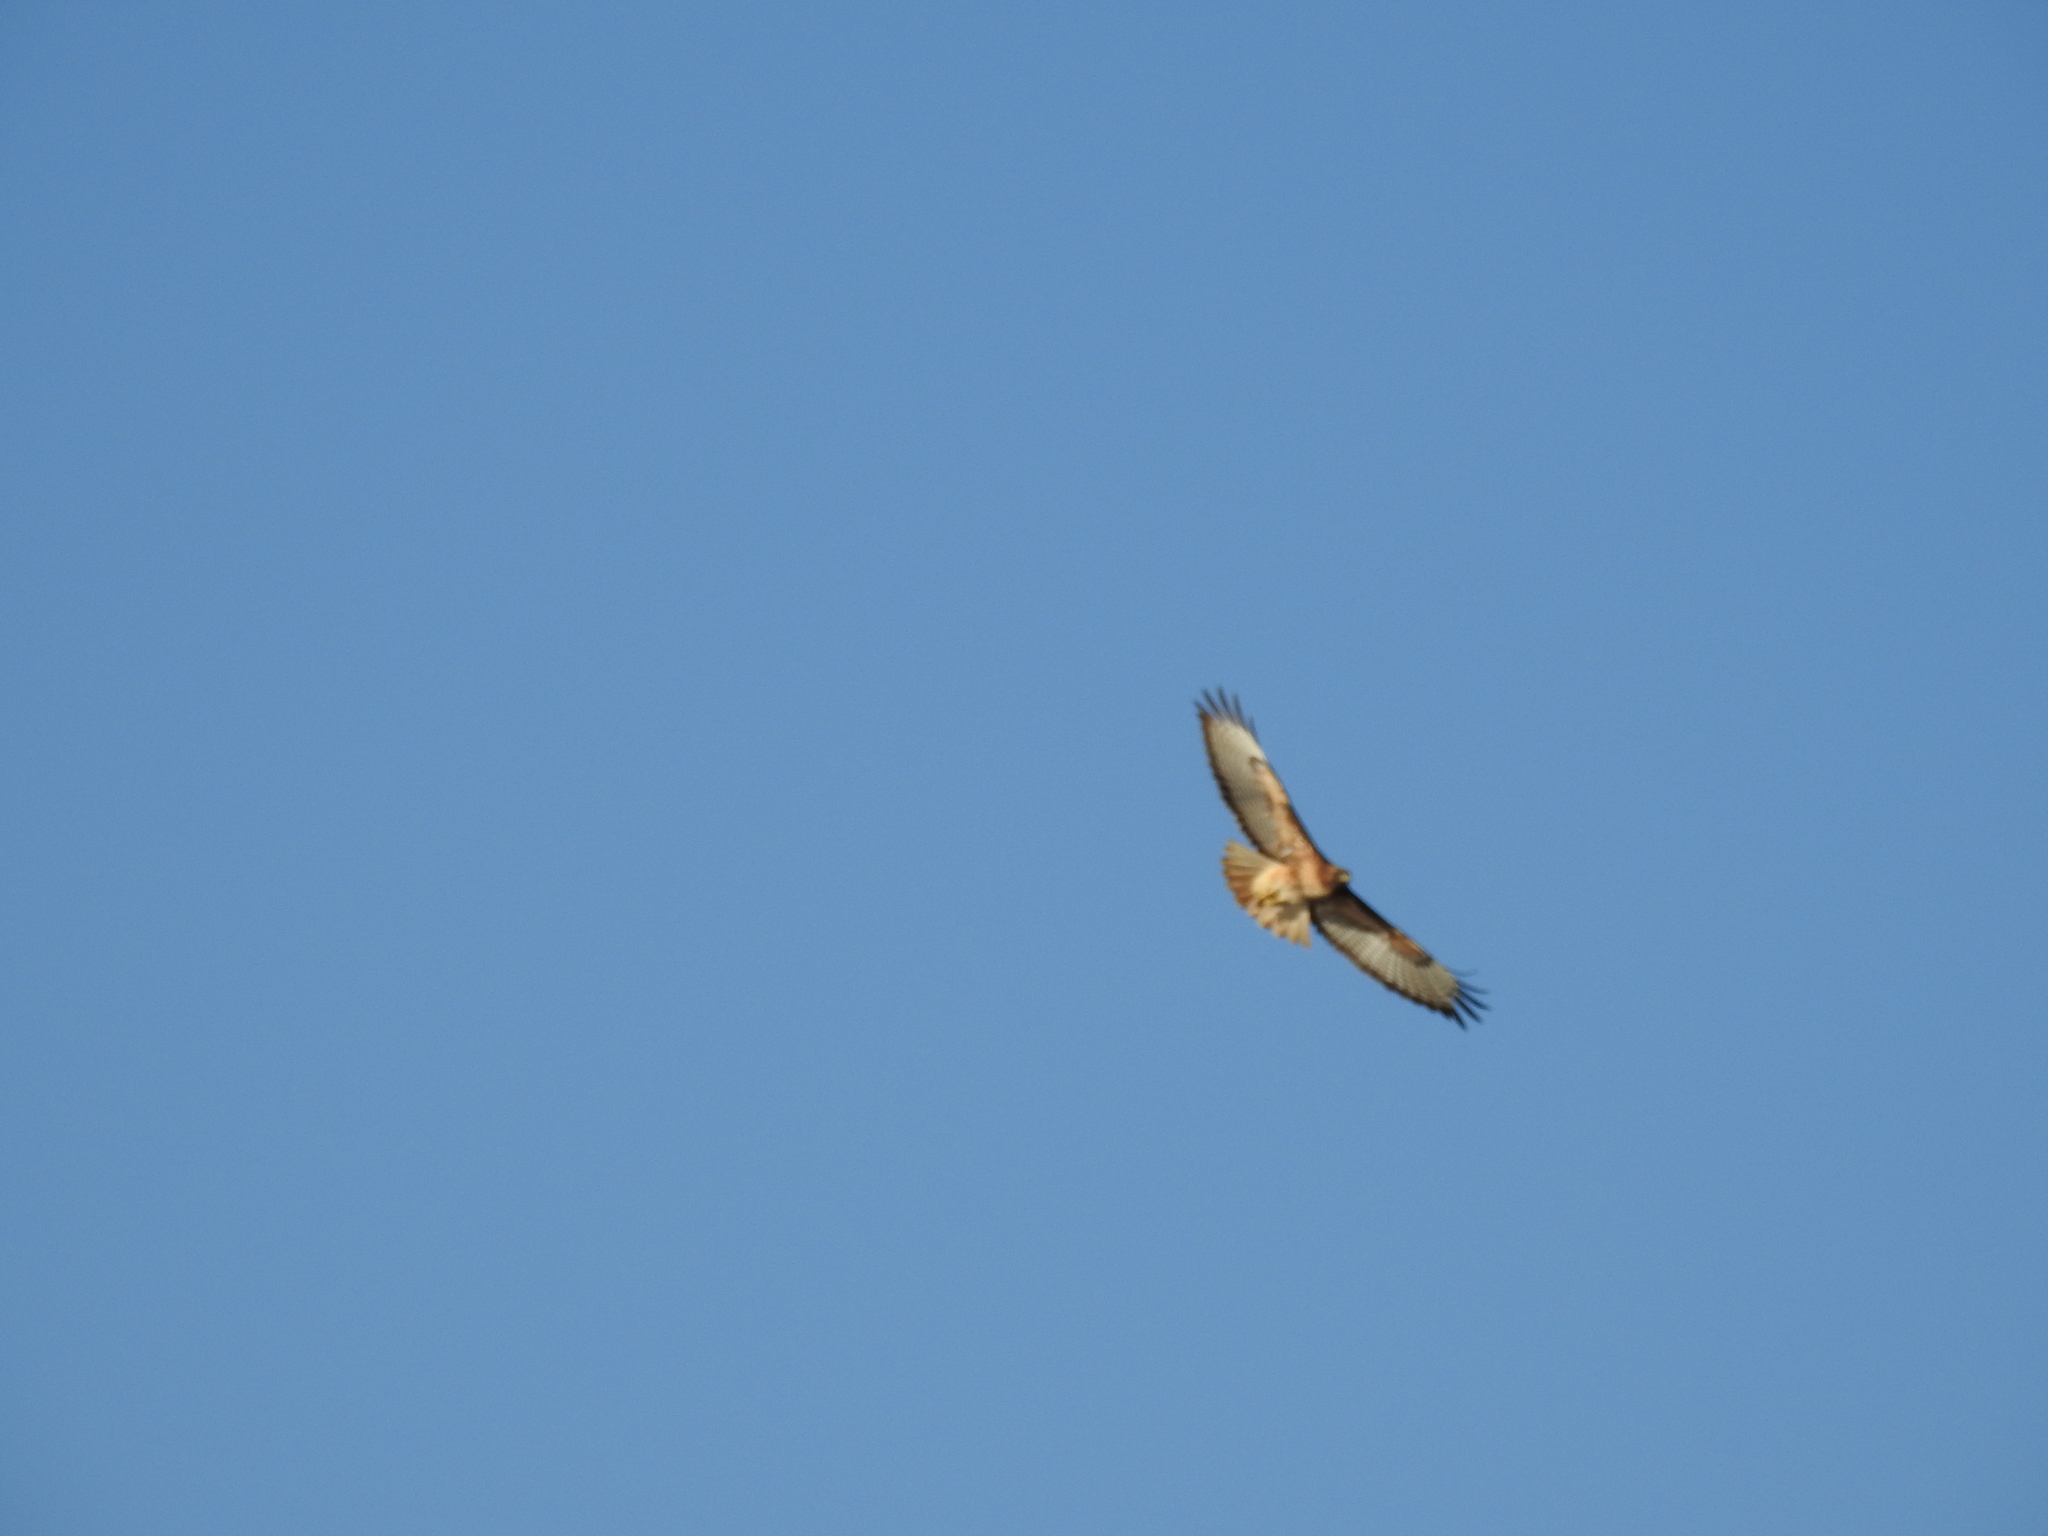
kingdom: Animalia
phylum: Chordata
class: Aves
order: Accipitriformes
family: Accipitridae
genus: Buteo
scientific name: Buteo jamaicensis
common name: Red-tailed hawk
